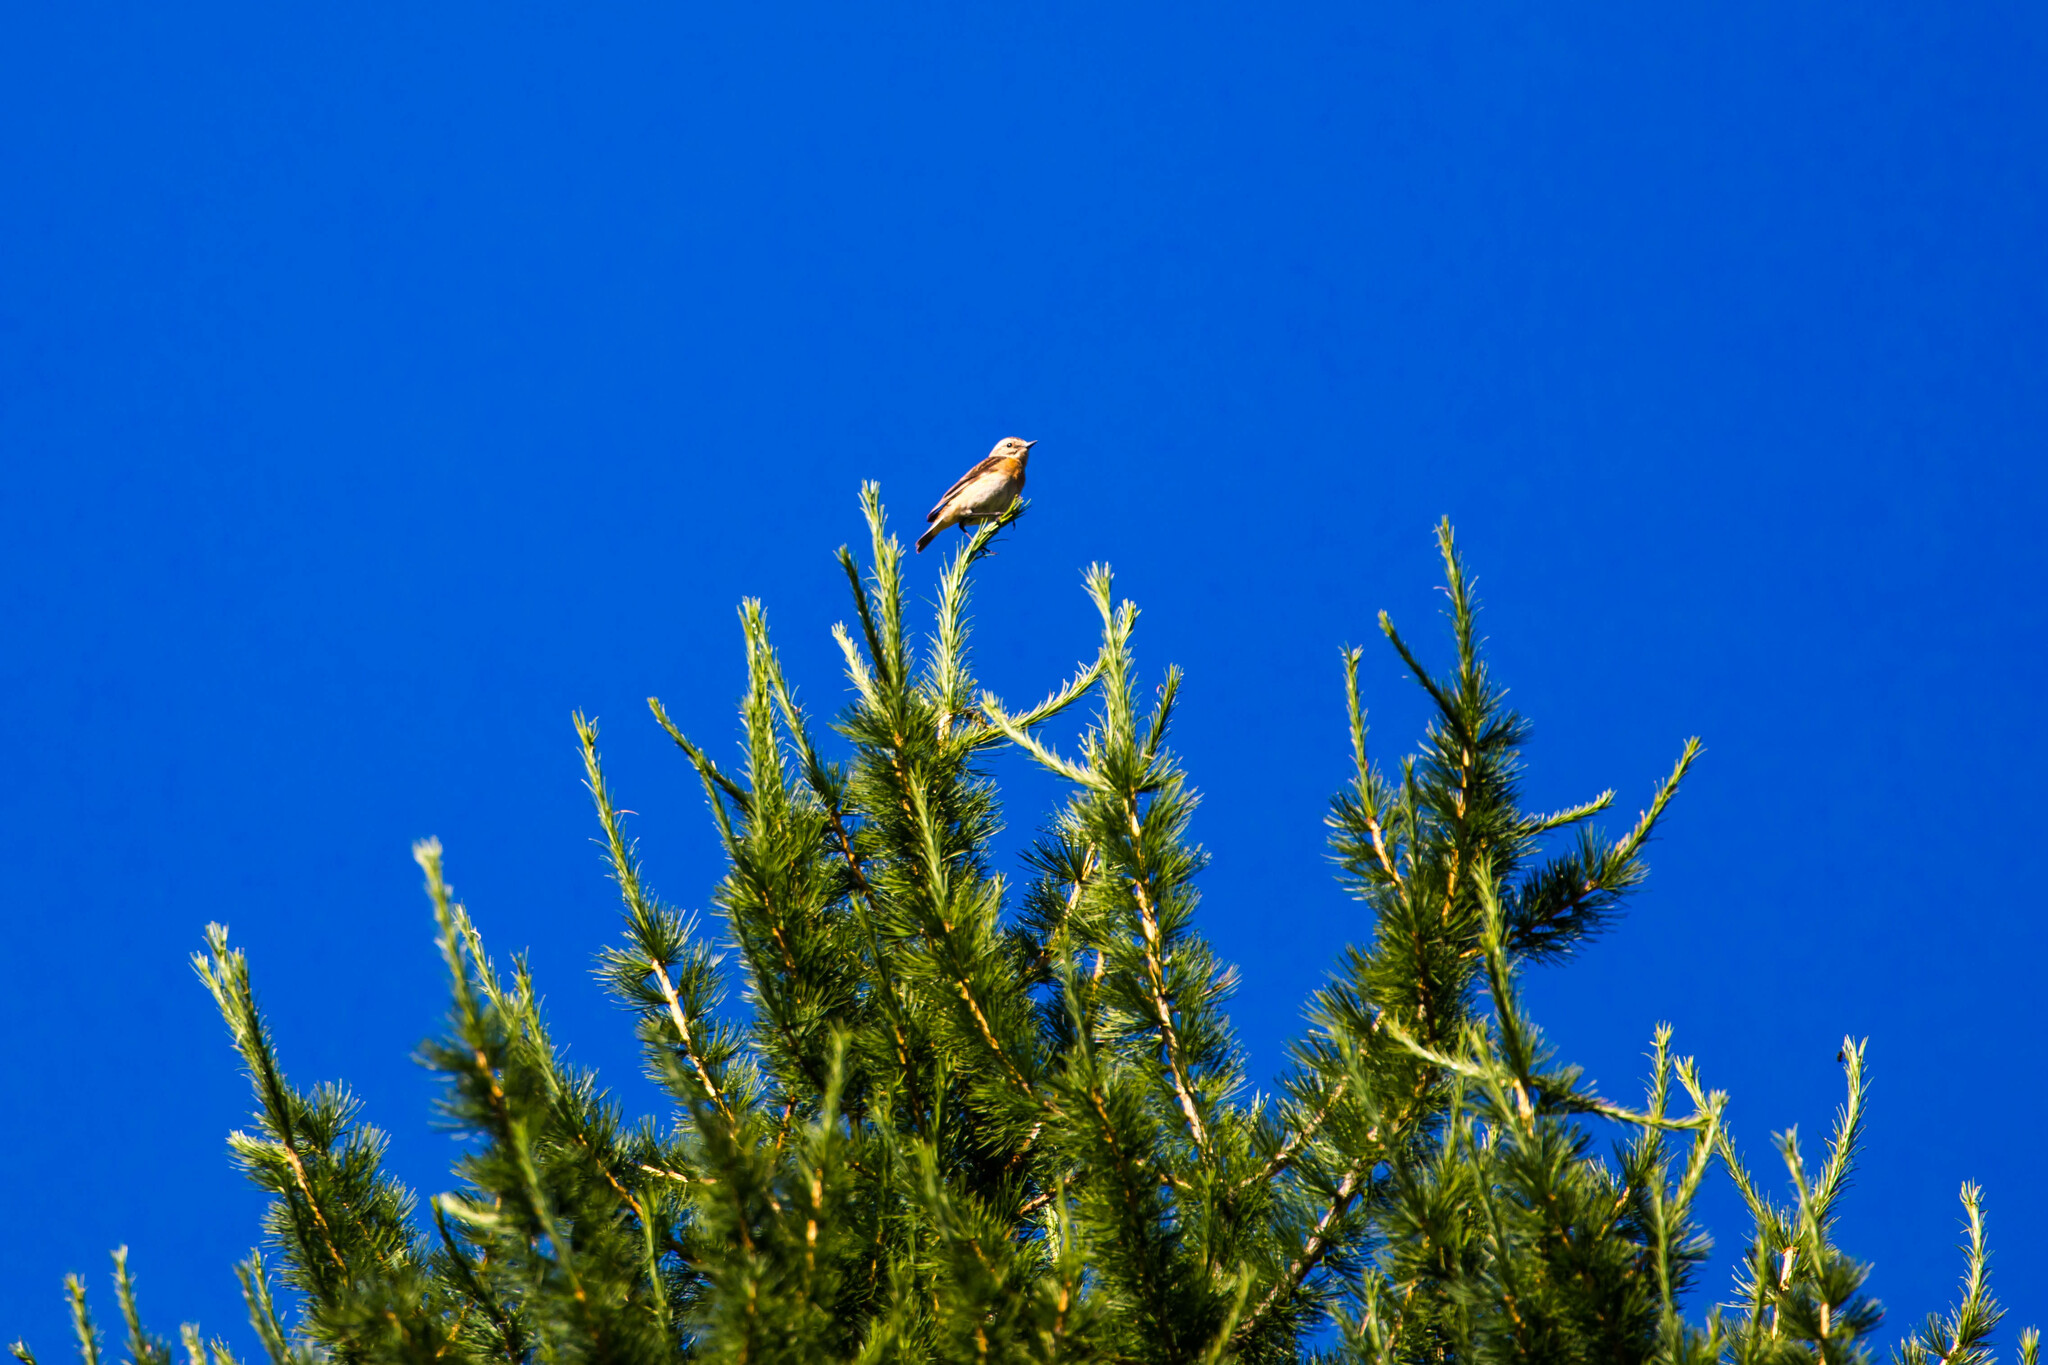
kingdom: Animalia
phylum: Chordata
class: Aves
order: Passeriformes
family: Muscicapidae
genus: Saxicola
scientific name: Saxicola rubetra
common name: Whinchat
